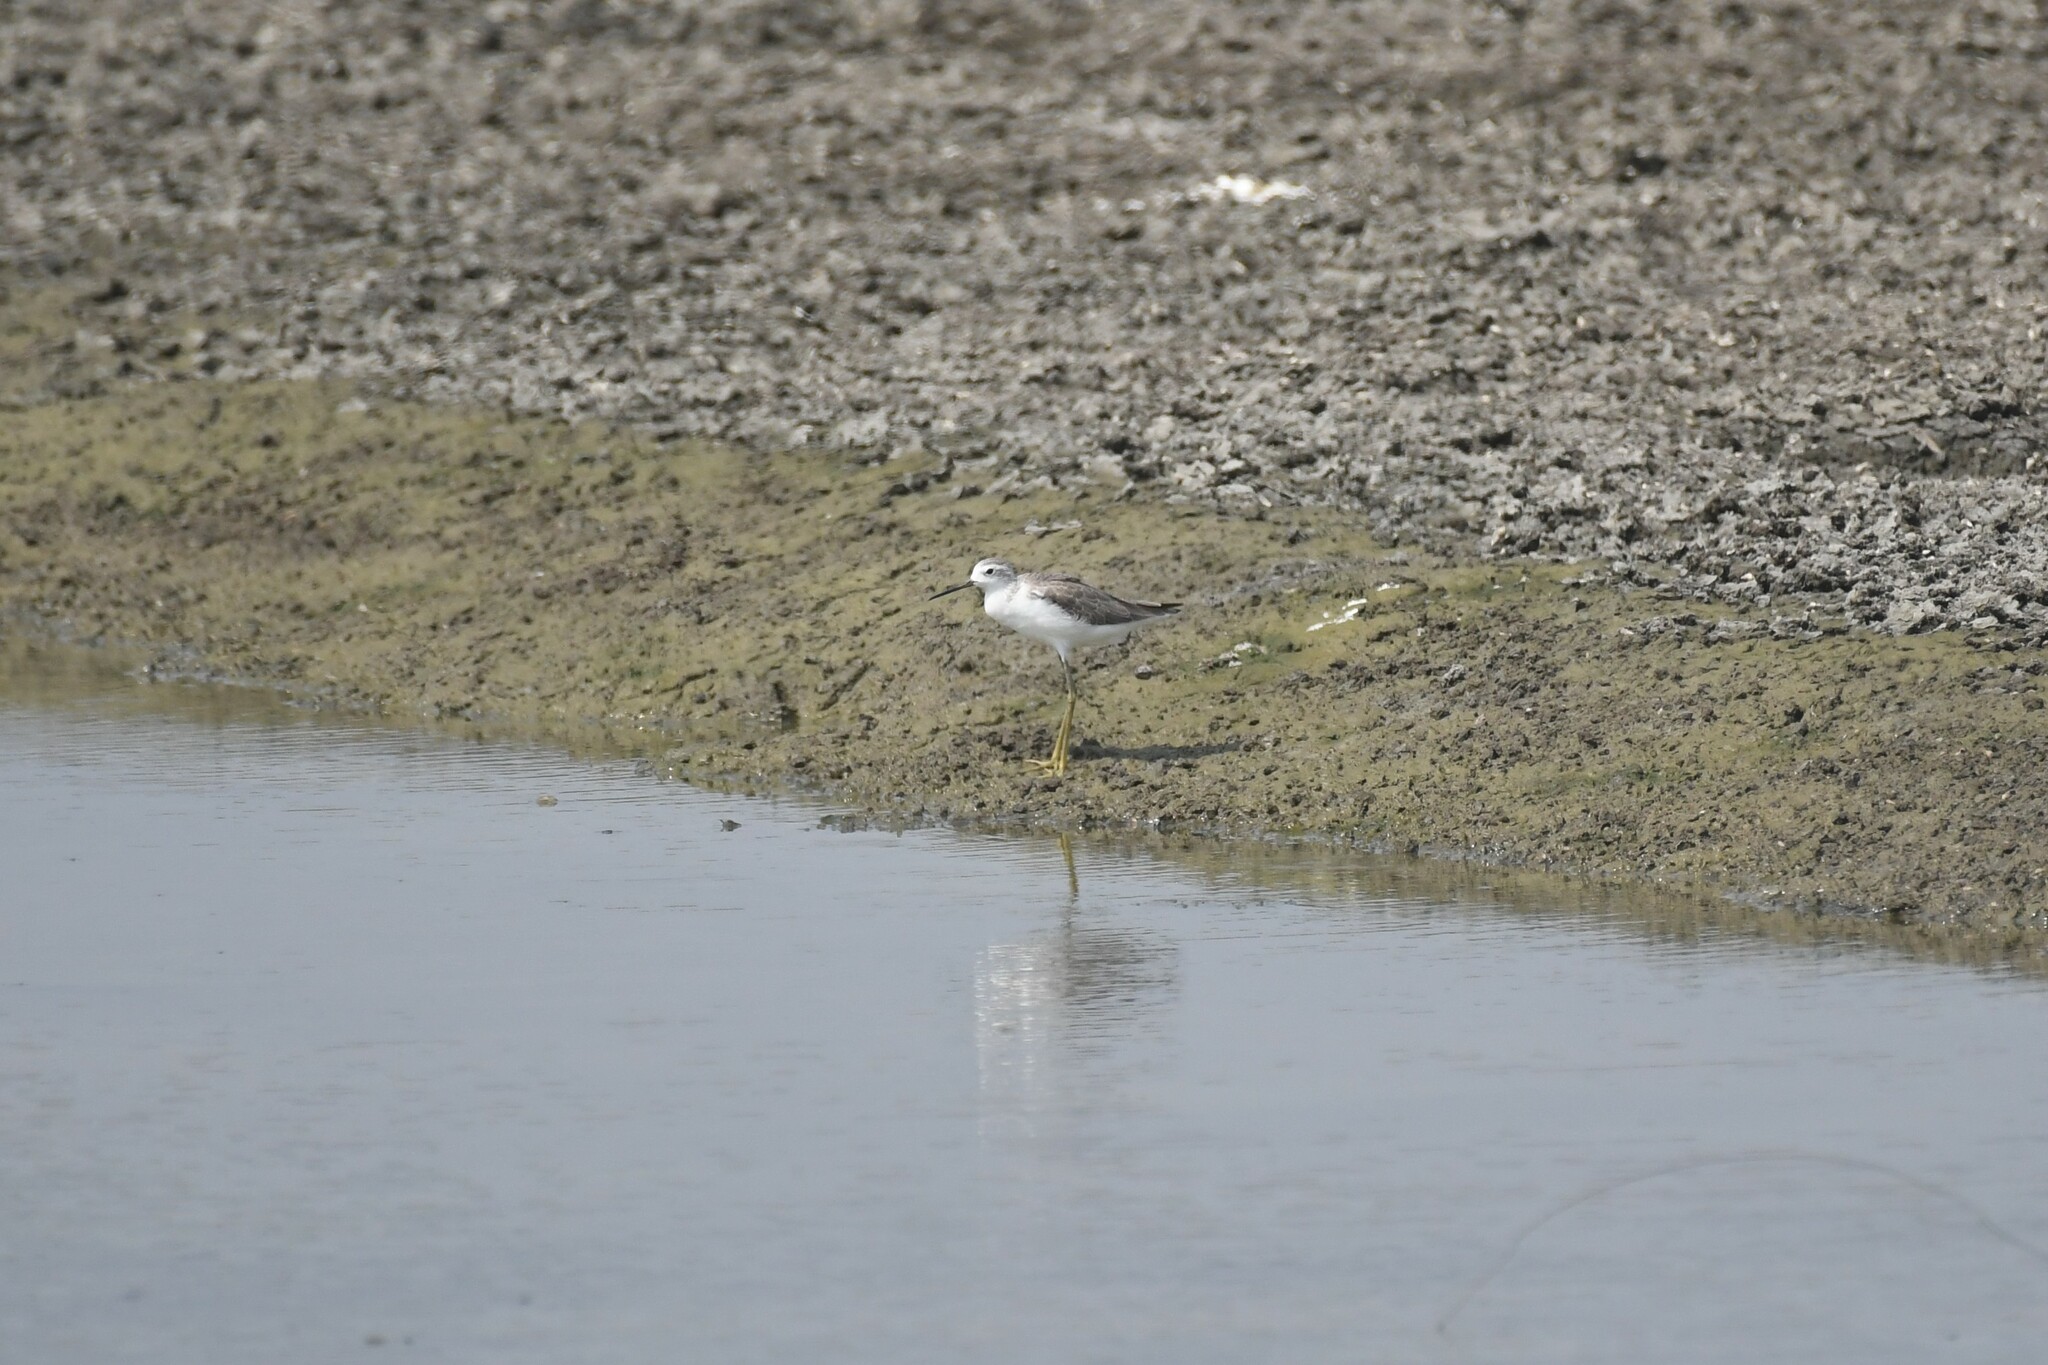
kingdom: Animalia
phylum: Chordata
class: Aves
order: Charadriiformes
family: Scolopacidae
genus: Tringa
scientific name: Tringa stagnatilis
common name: Marsh sandpiper
